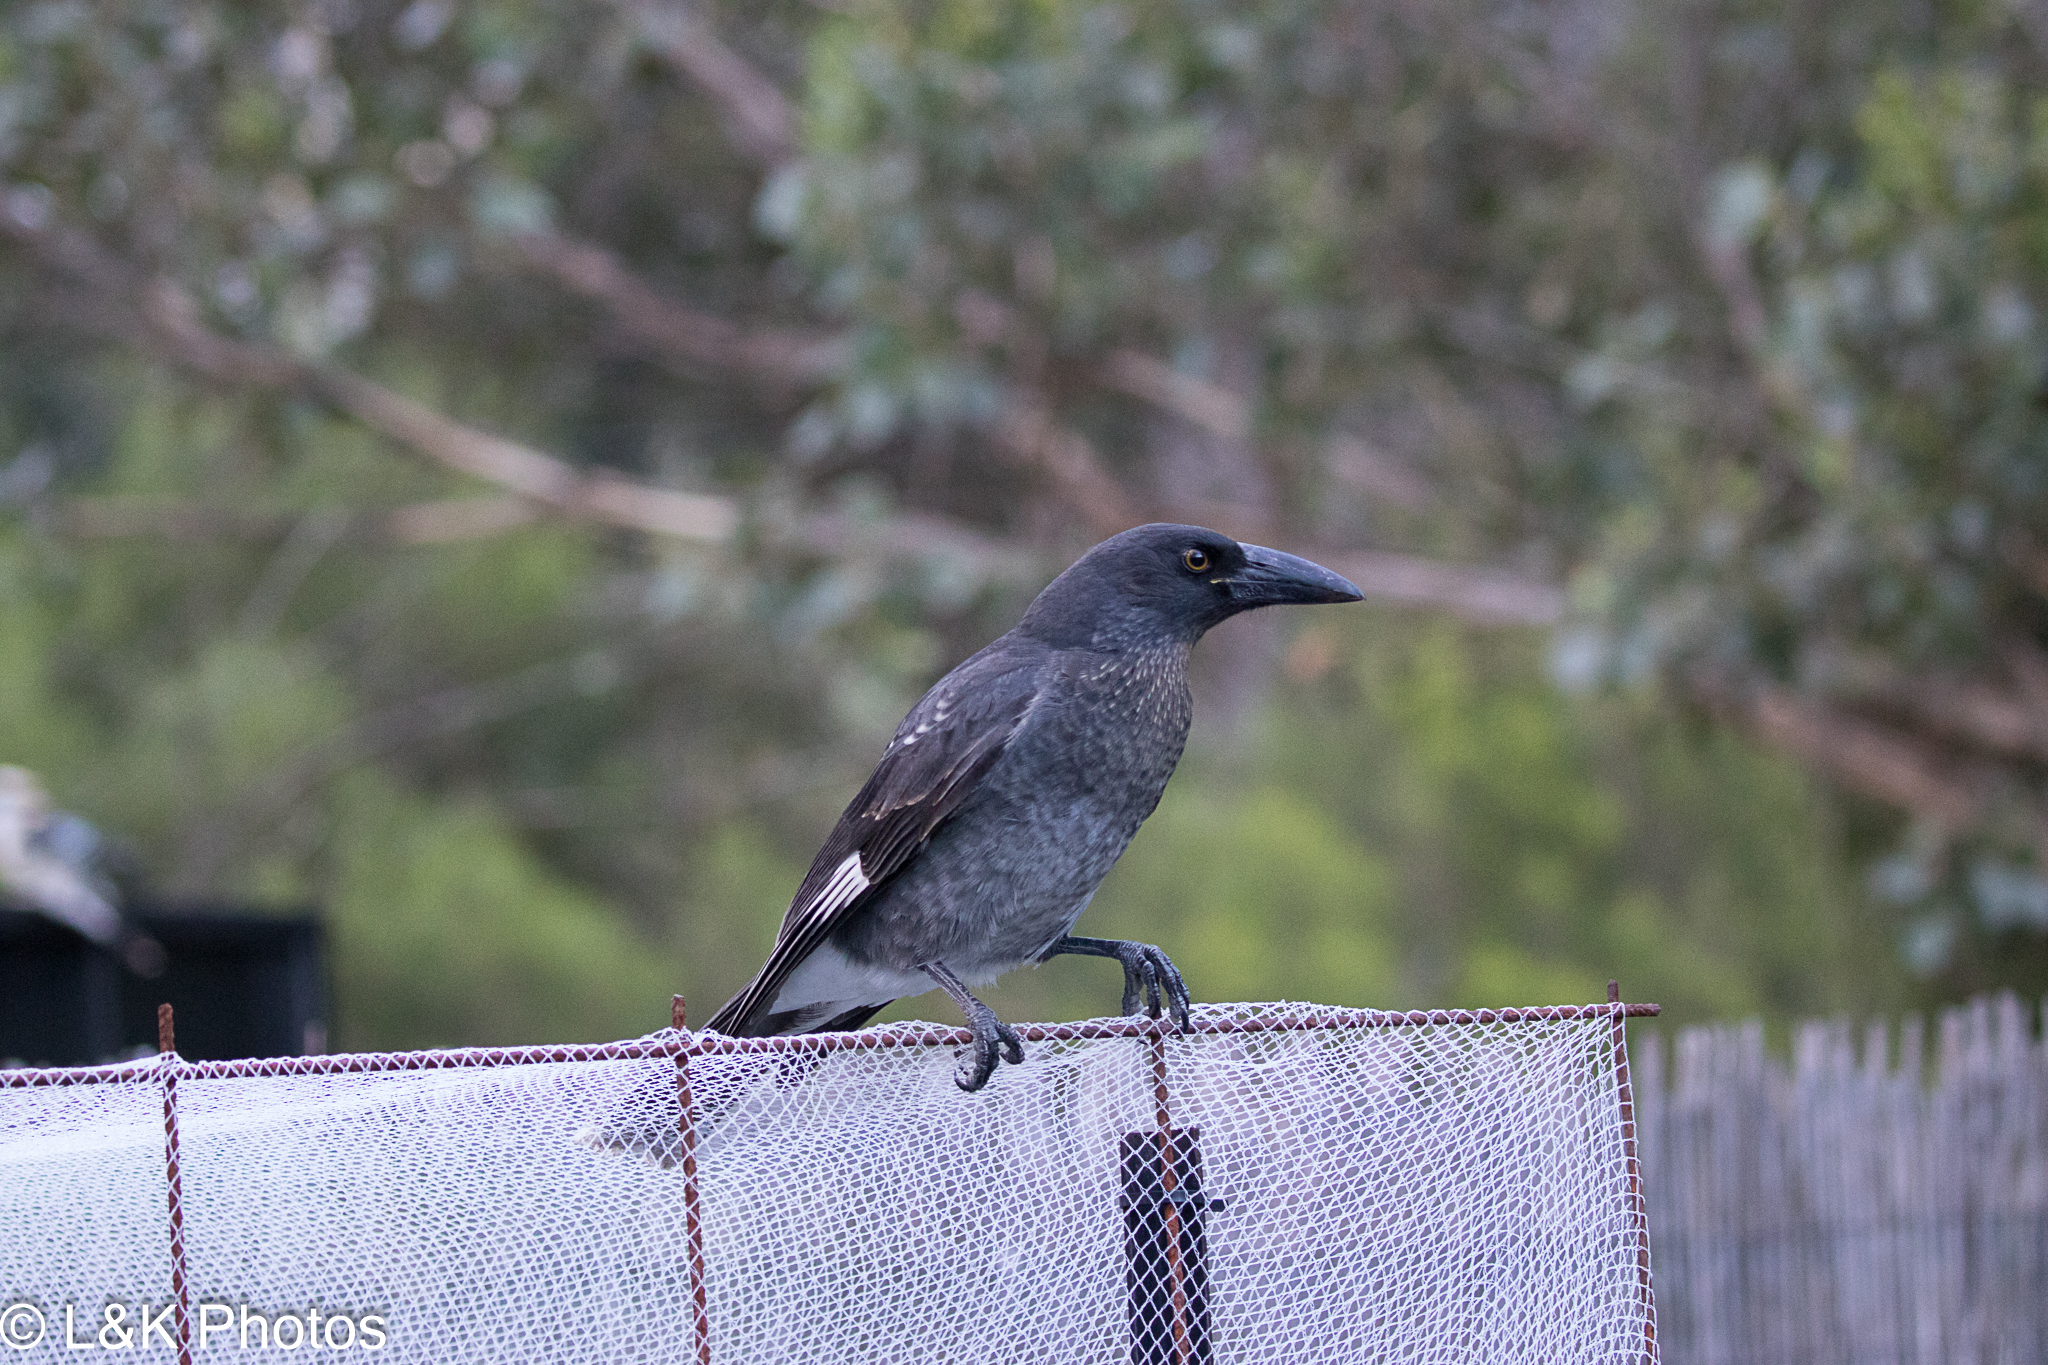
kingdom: Animalia
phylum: Chordata
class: Aves
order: Passeriformes
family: Cracticidae
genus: Strepera
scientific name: Strepera graculina
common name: Pied currawong
